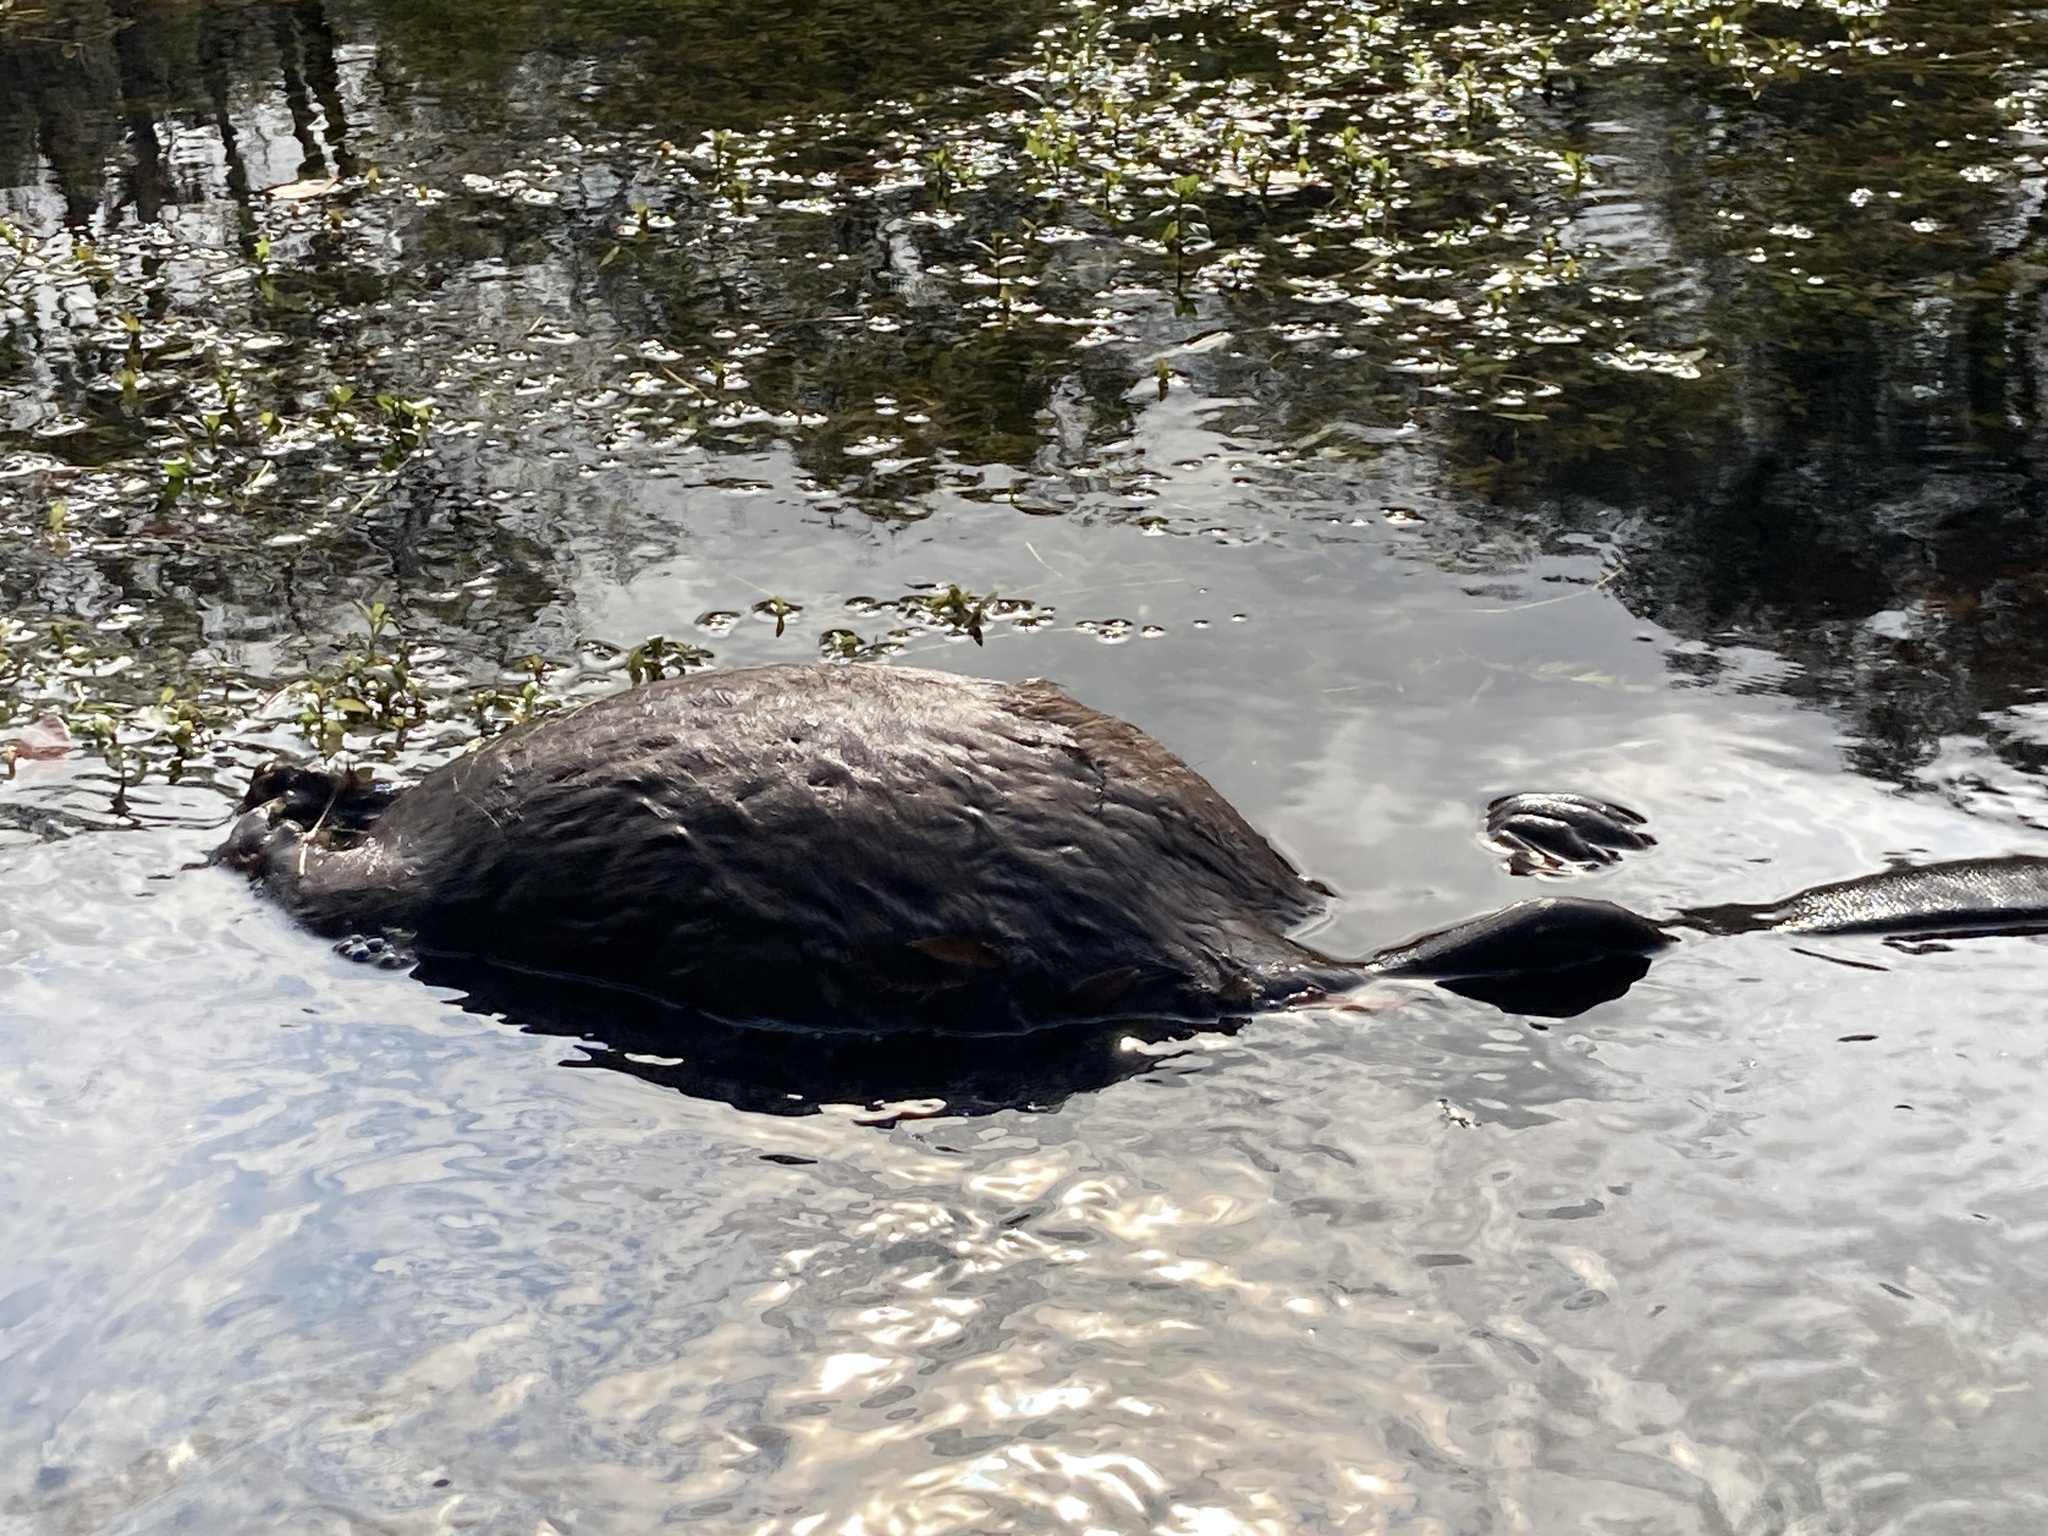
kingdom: Animalia
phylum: Chordata
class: Mammalia
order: Rodentia
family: Castoridae
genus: Castor
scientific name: Castor canadensis
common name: American beaver
